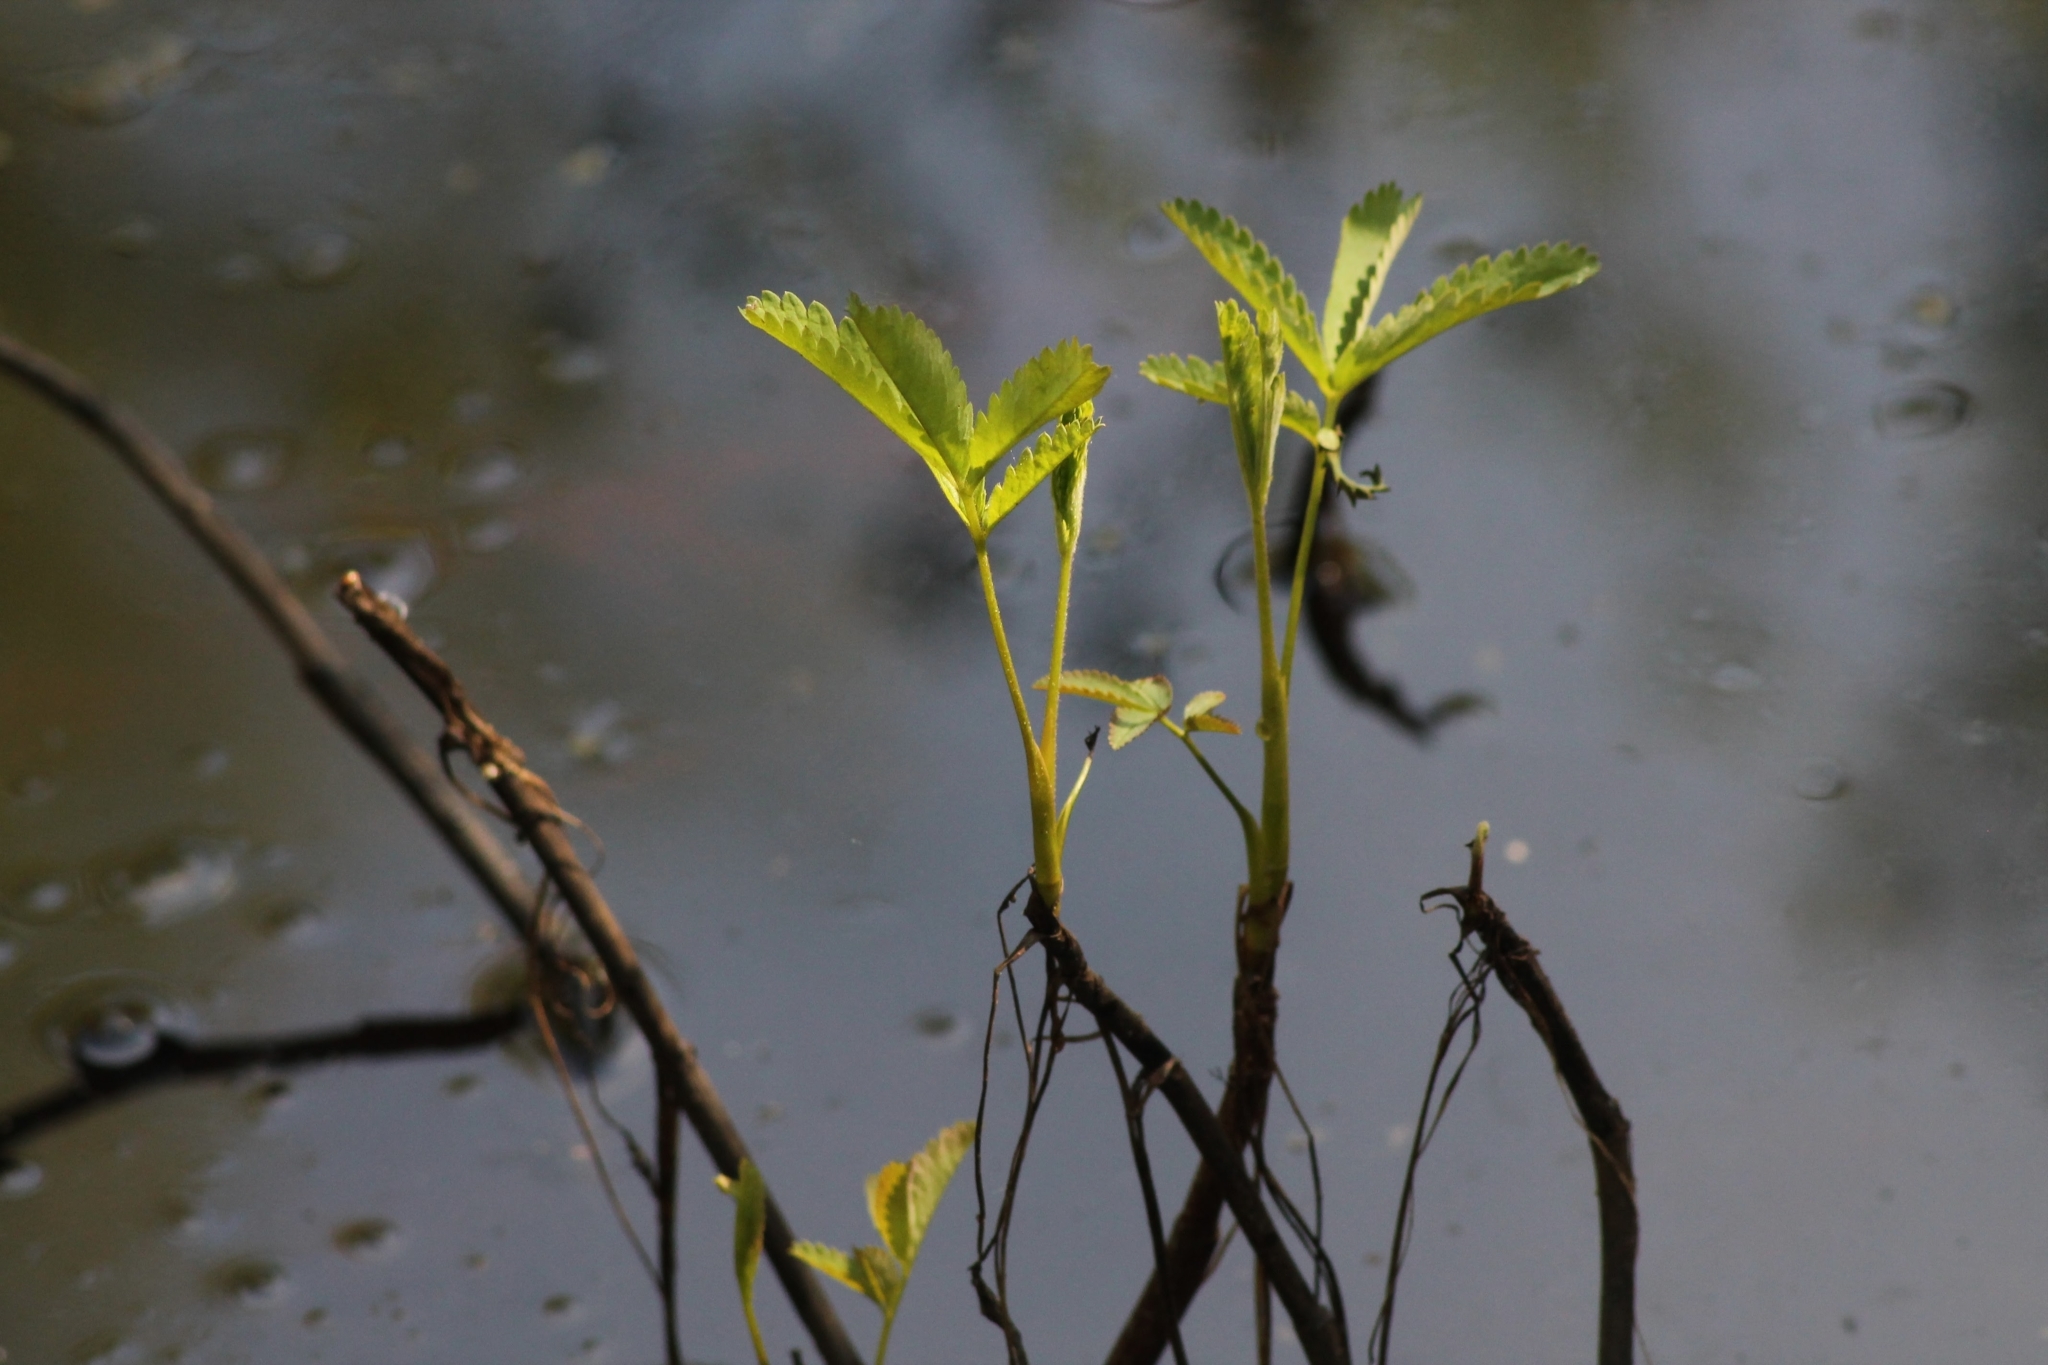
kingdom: Plantae
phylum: Tracheophyta
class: Magnoliopsida
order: Rosales
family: Rosaceae
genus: Comarum
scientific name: Comarum palustre
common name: Marsh cinquefoil
